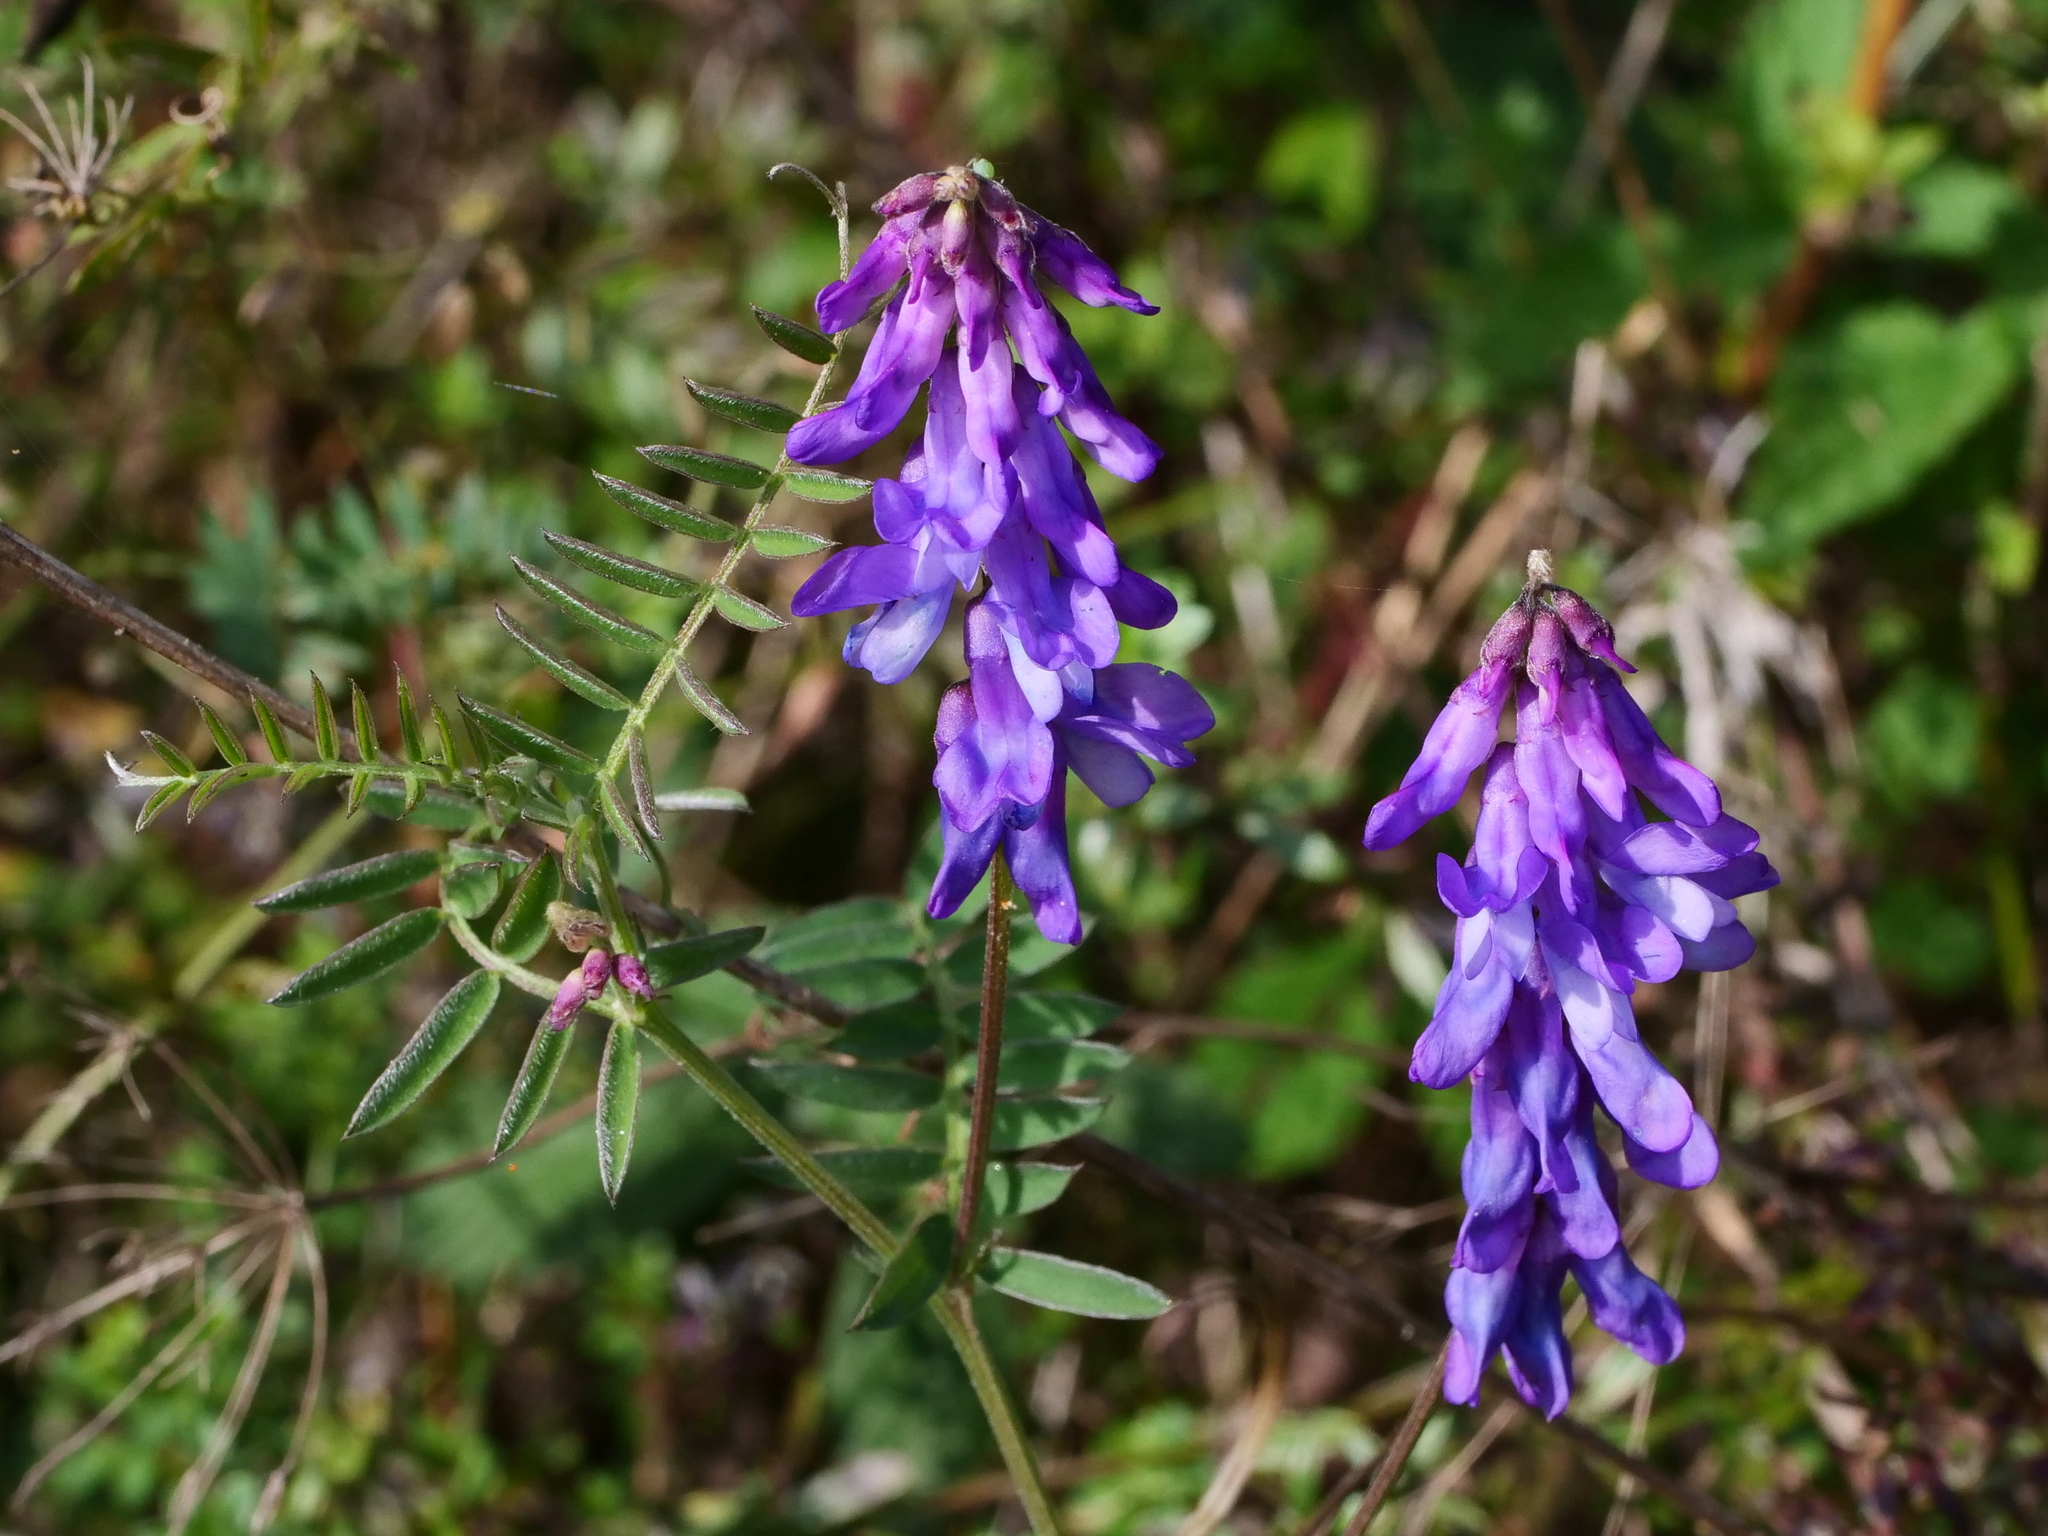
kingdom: Plantae
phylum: Tracheophyta
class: Magnoliopsida
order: Fabales
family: Fabaceae
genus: Vicia
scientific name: Vicia cracca
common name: Bird vetch
